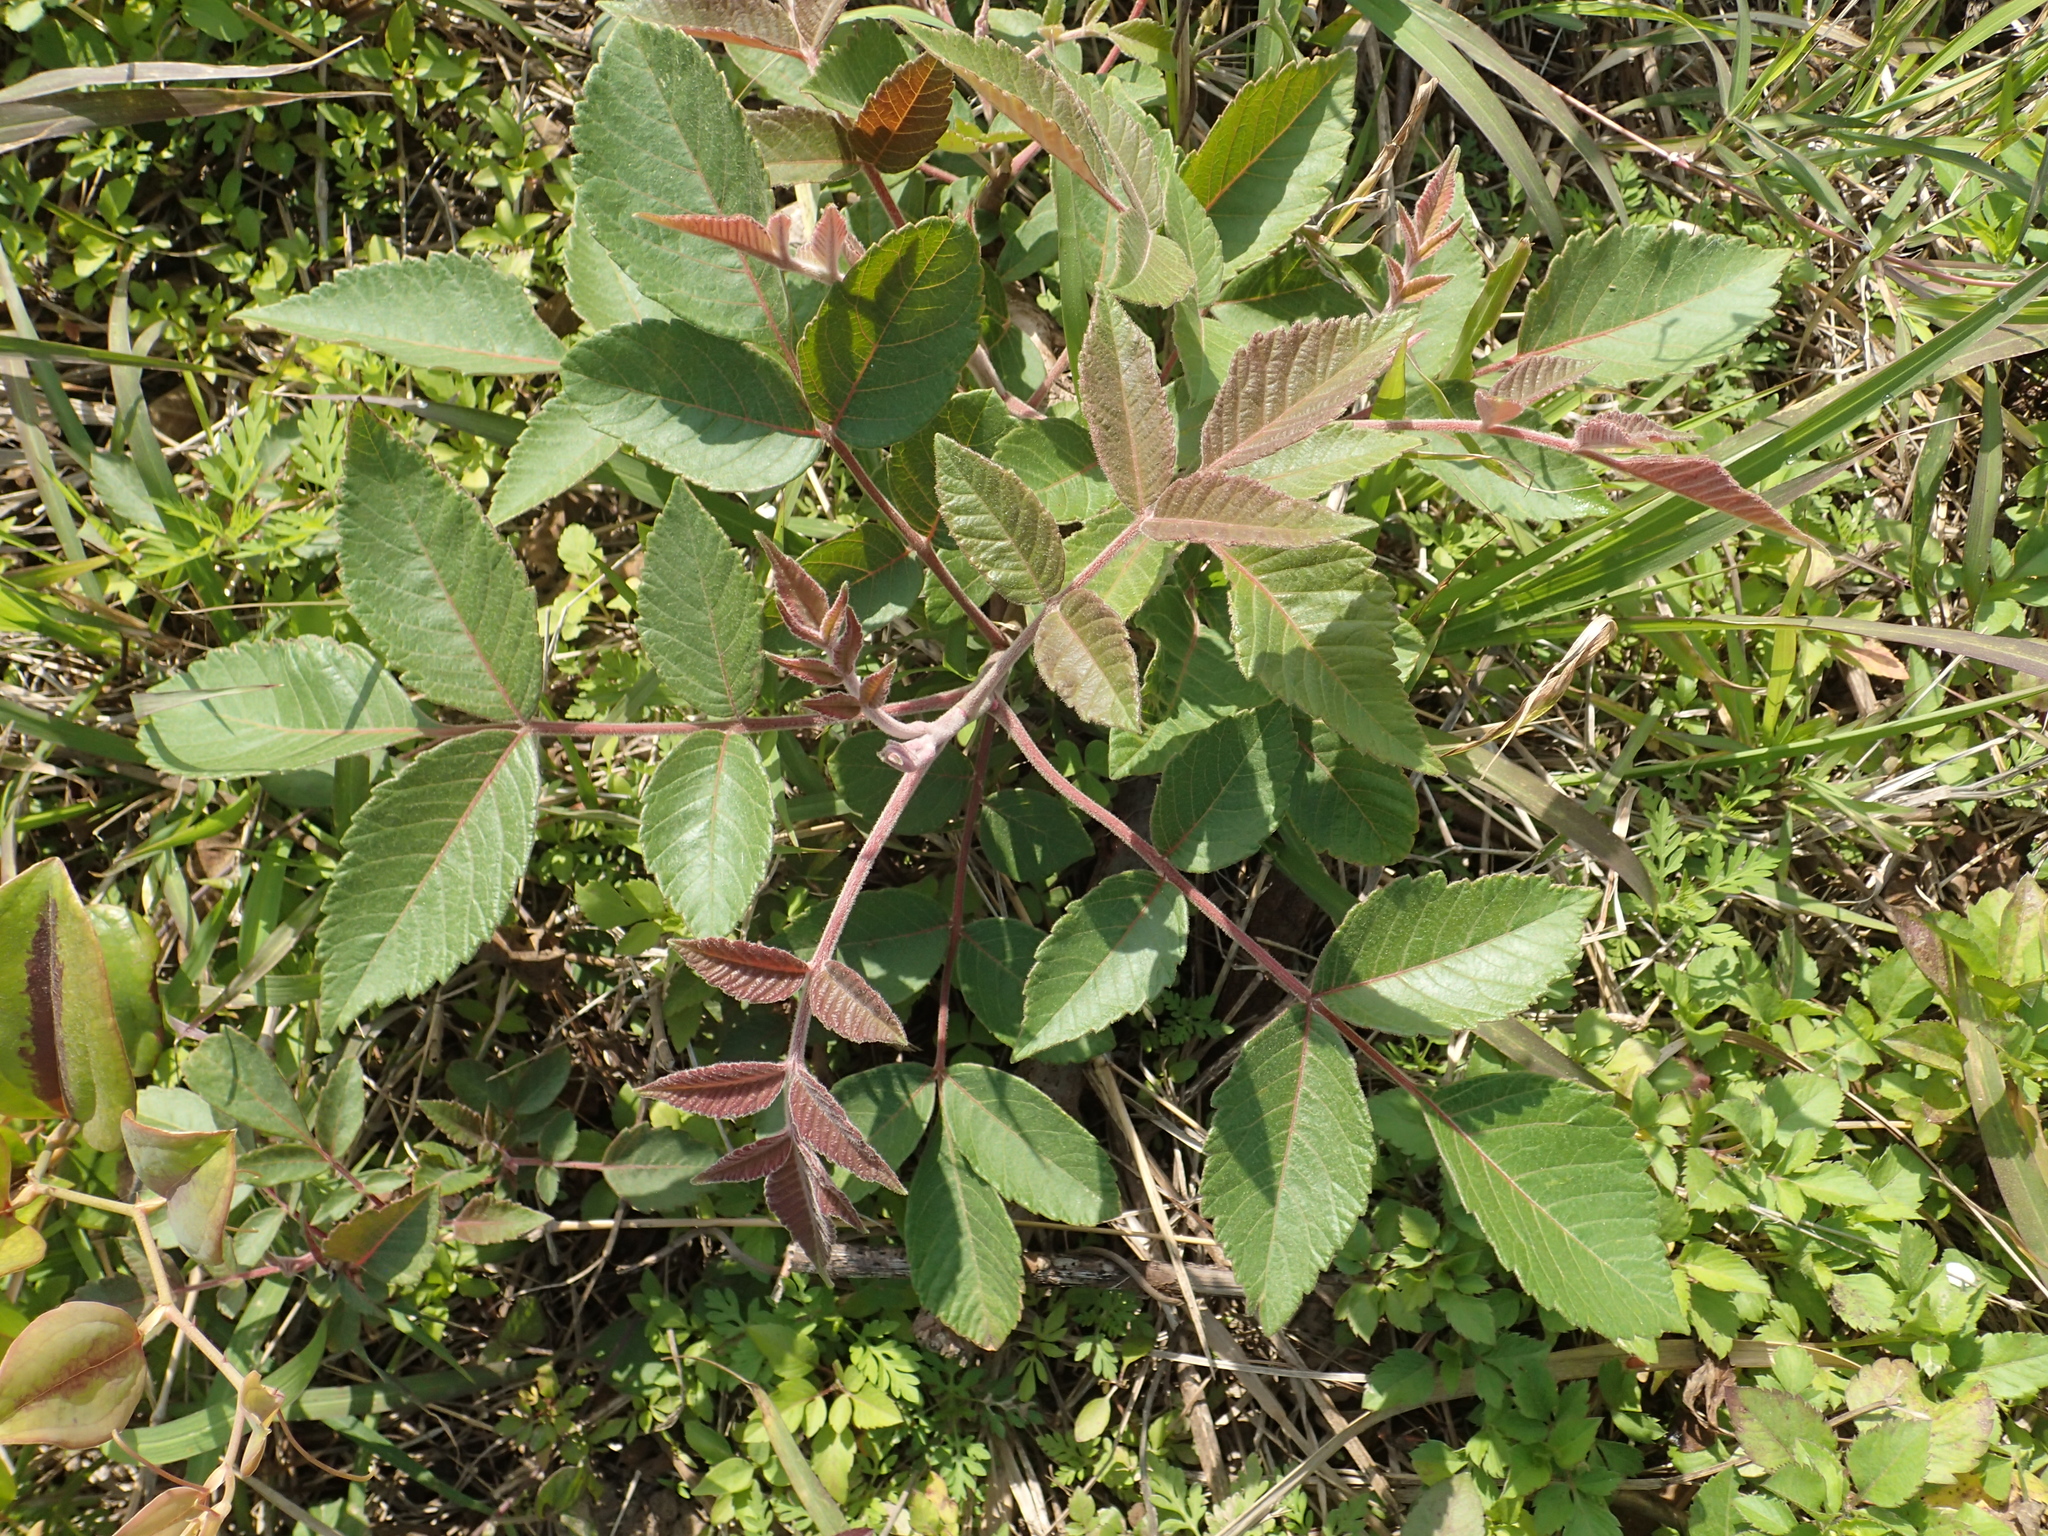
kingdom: Plantae
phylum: Tracheophyta
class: Magnoliopsida
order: Sapindales
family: Anacardiaceae
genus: Rhus
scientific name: Rhus chinensis
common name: Chinese gall
